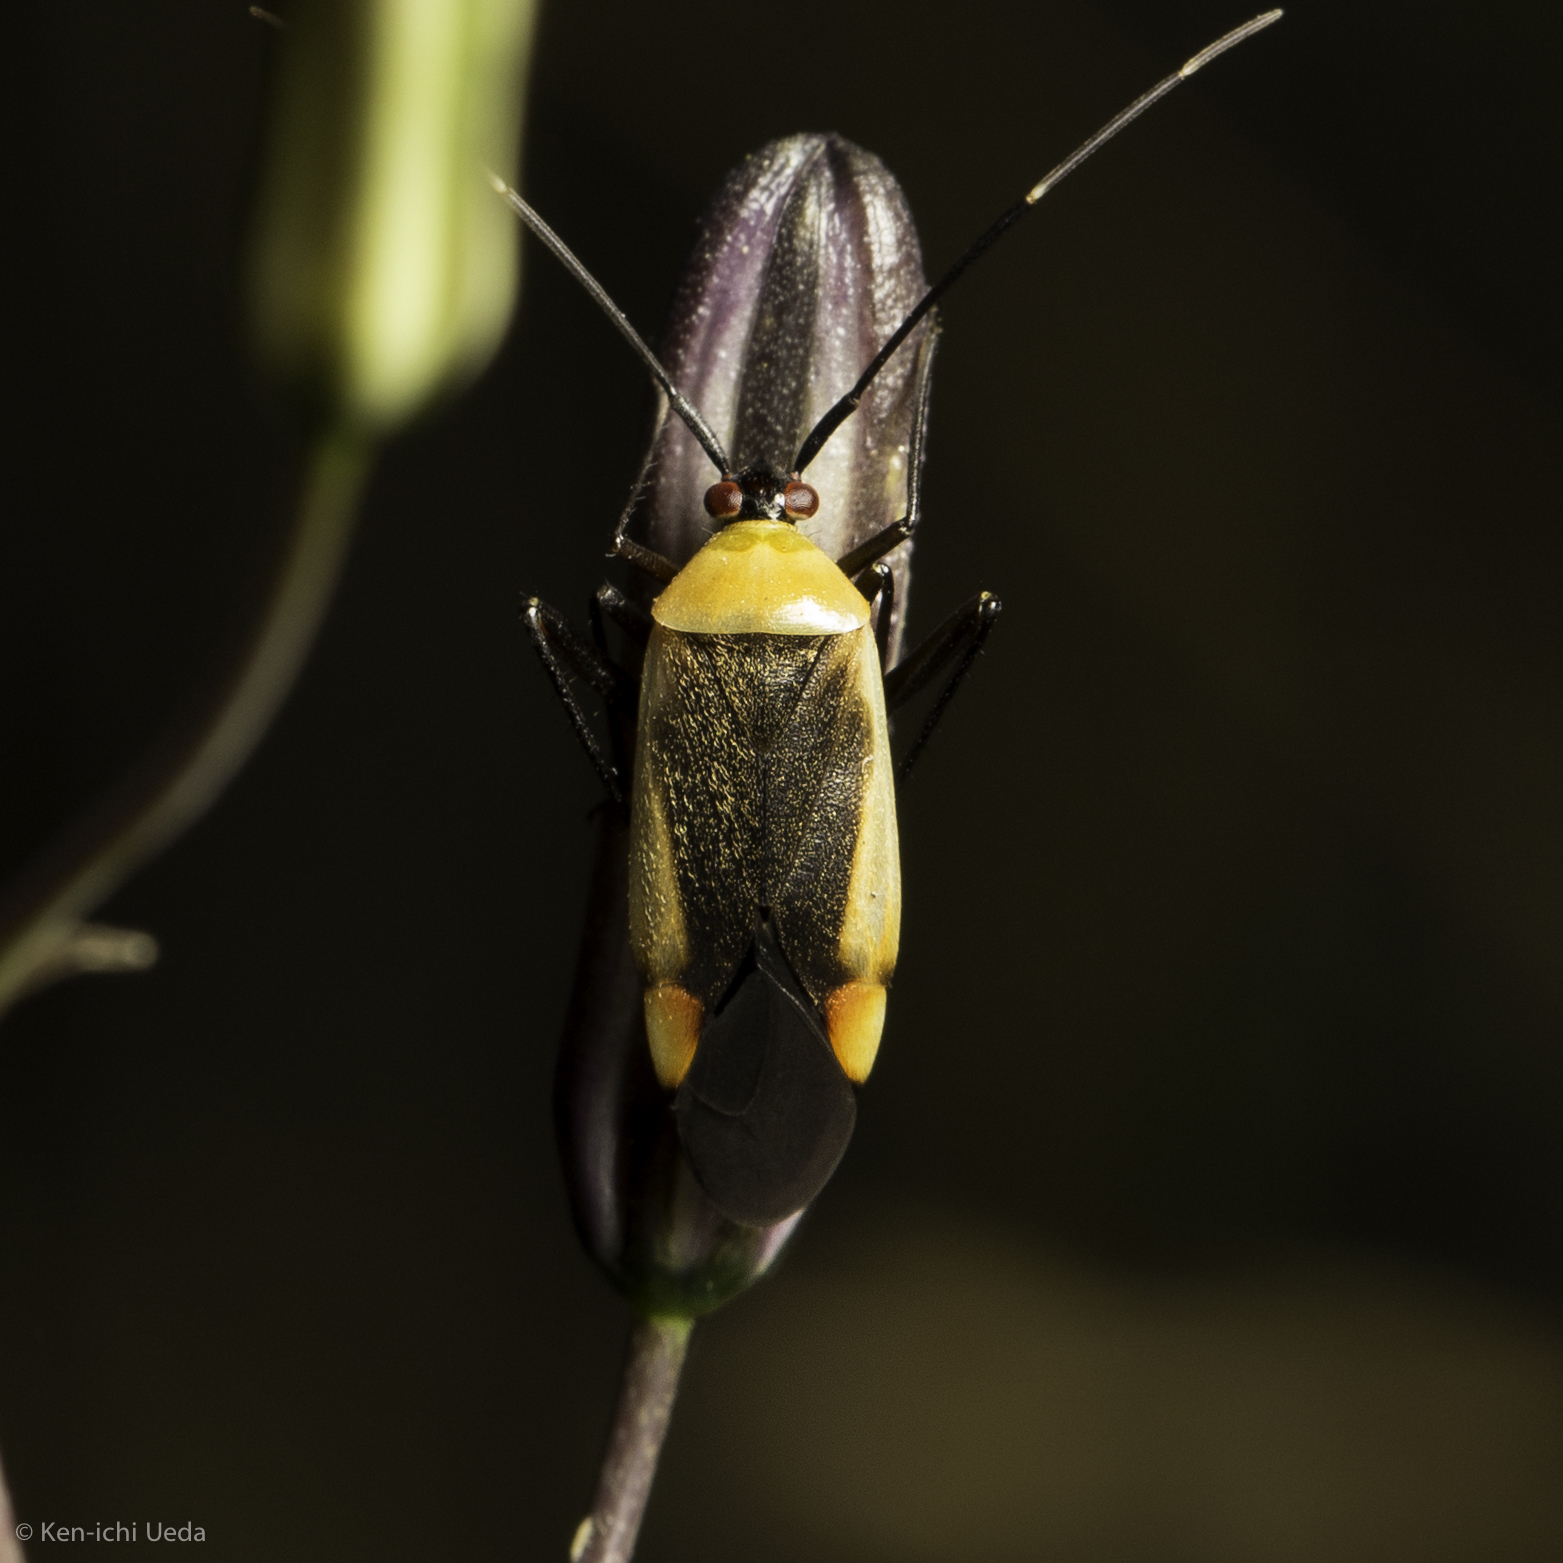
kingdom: Animalia
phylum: Arthropoda
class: Insecta
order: Hemiptera
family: Miridae
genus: Adelphocoris
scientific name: Adelphocoris rapidus
